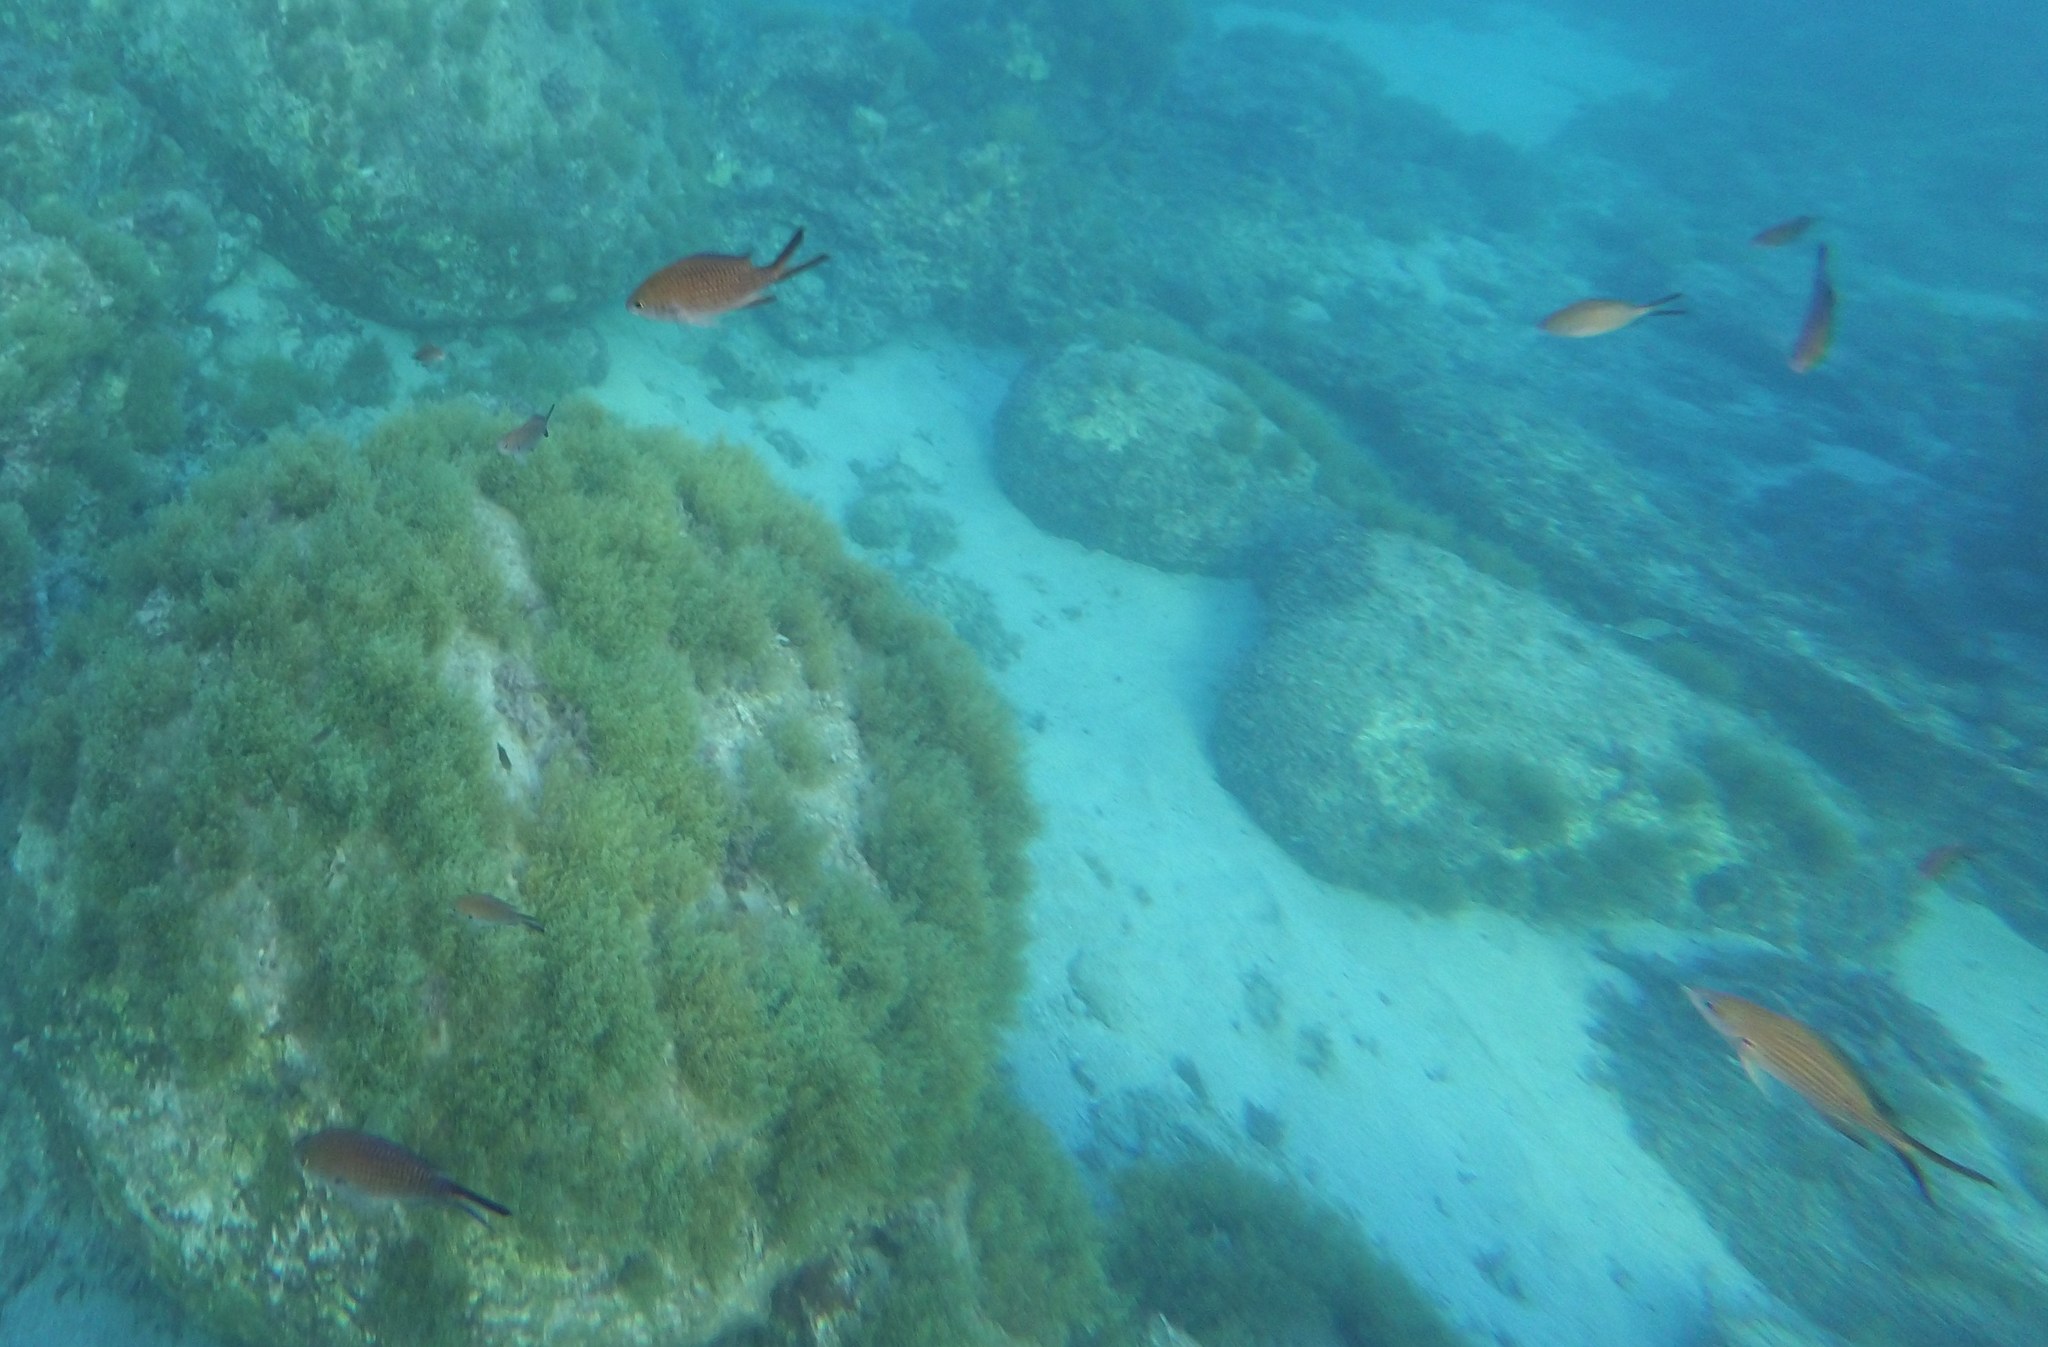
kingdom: Animalia
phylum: Chordata
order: Perciformes
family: Pomacentridae
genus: Chromis
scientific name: Chromis chromis
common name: Damselfish
